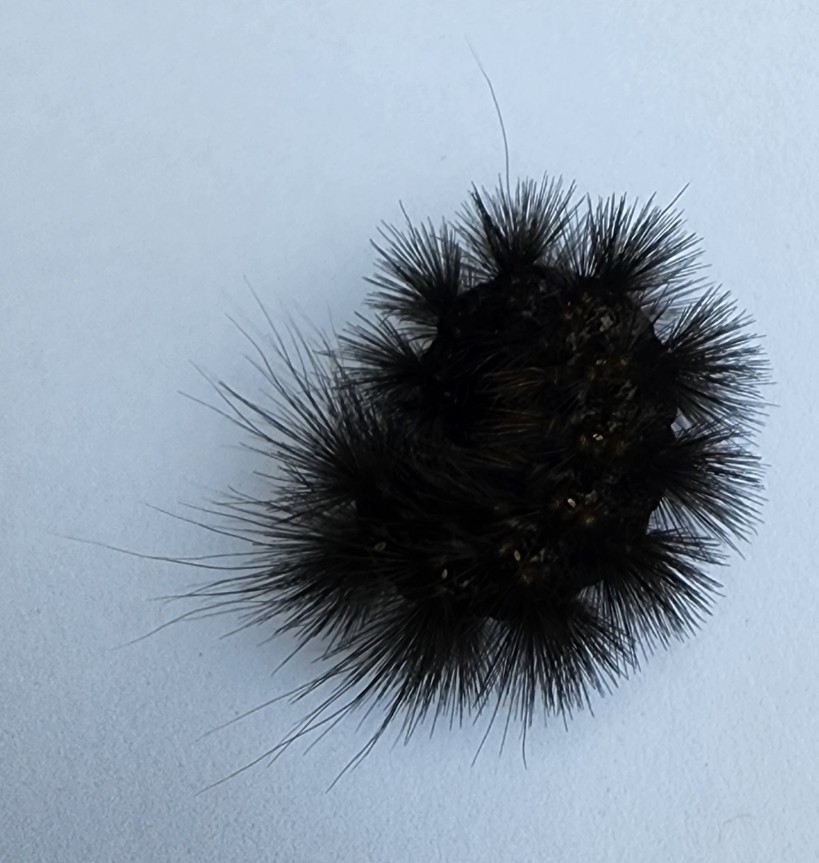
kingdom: Animalia
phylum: Arthropoda
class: Insecta
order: Lepidoptera
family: Erebidae
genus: Estigmene
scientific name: Estigmene acrea
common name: Salt marsh moth
